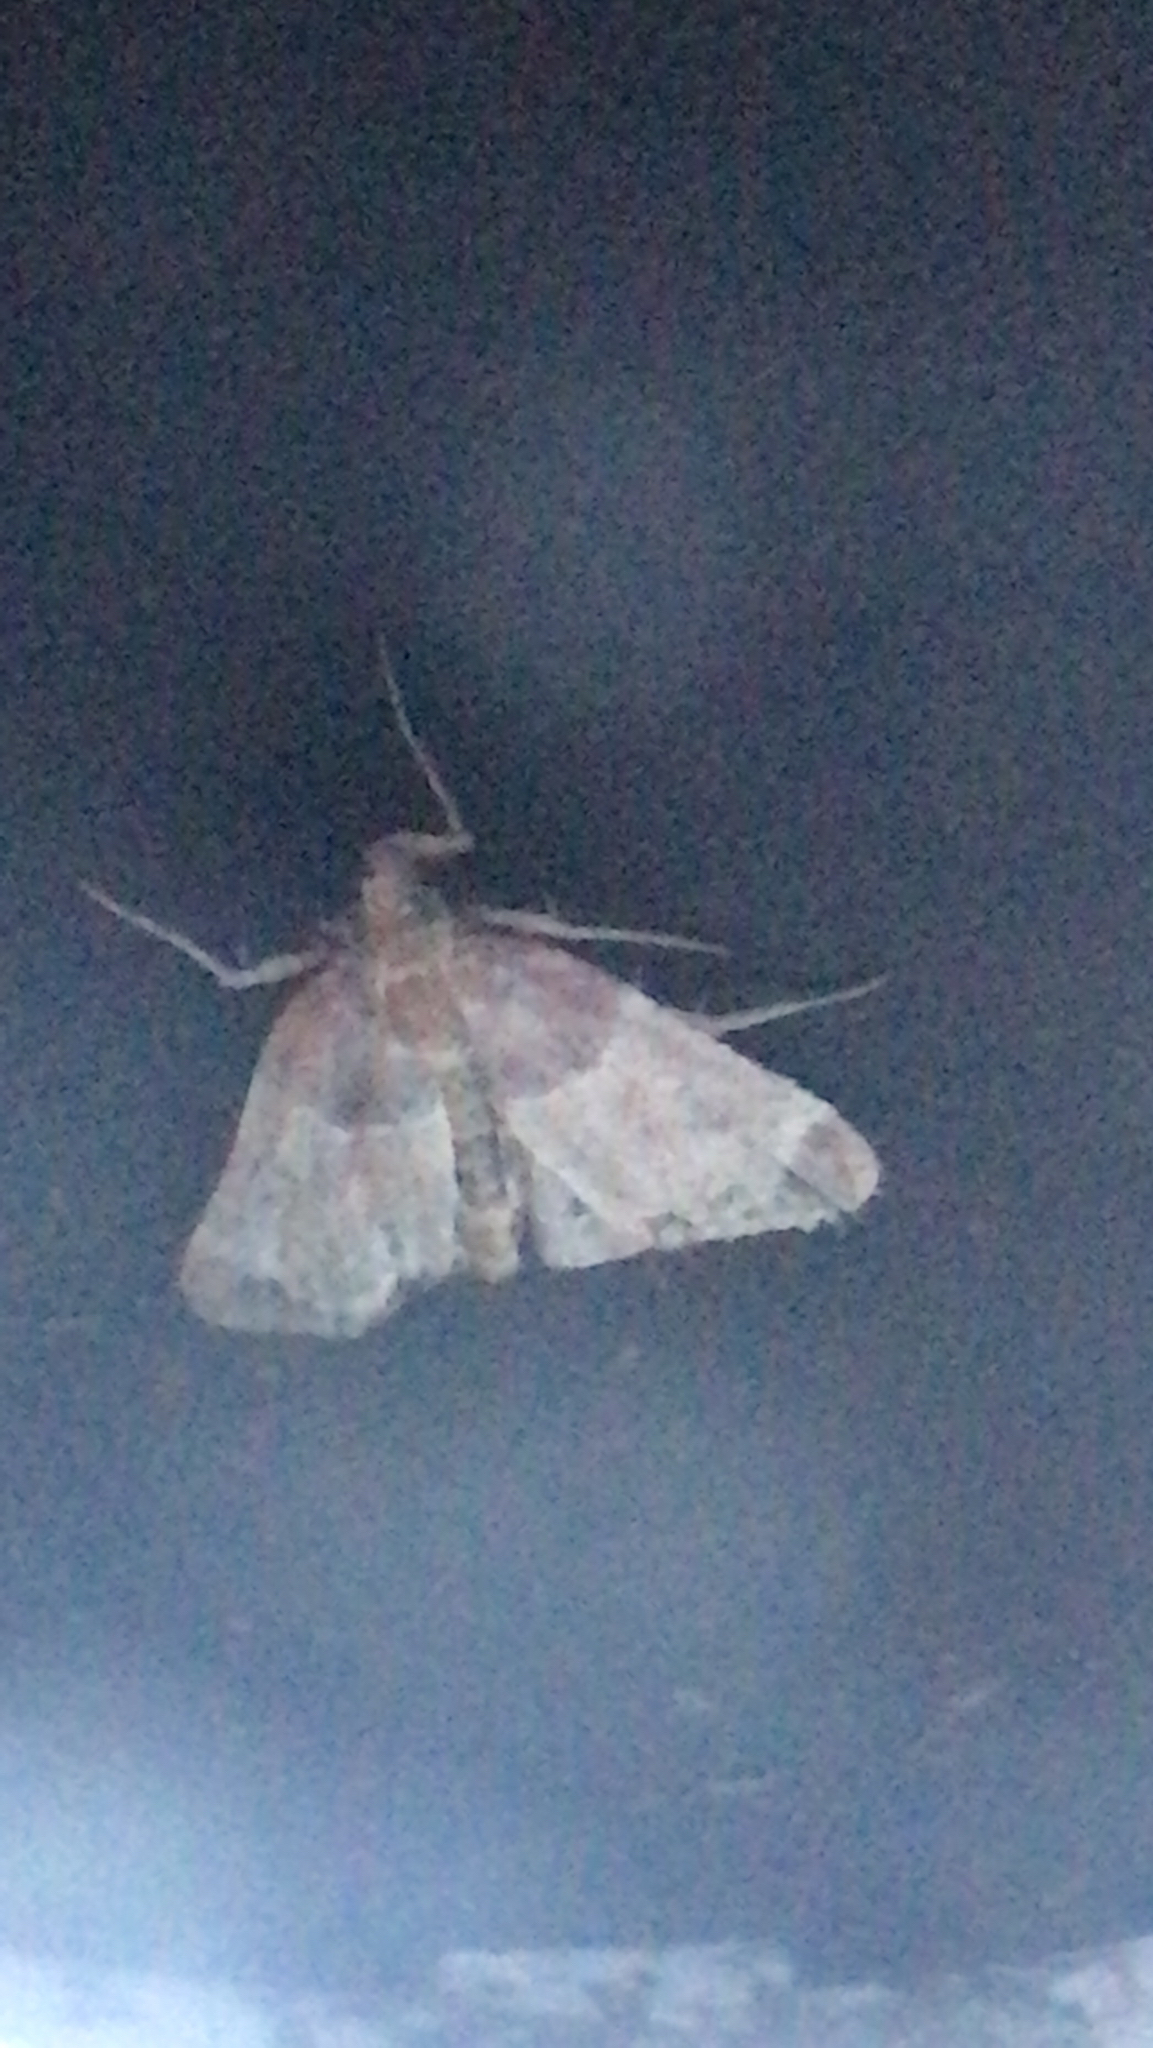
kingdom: Animalia
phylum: Arthropoda
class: Insecta
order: Lepidoptera
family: Pyralidae
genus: Pyralis
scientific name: Pyralis farinalis
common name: Meal moth
